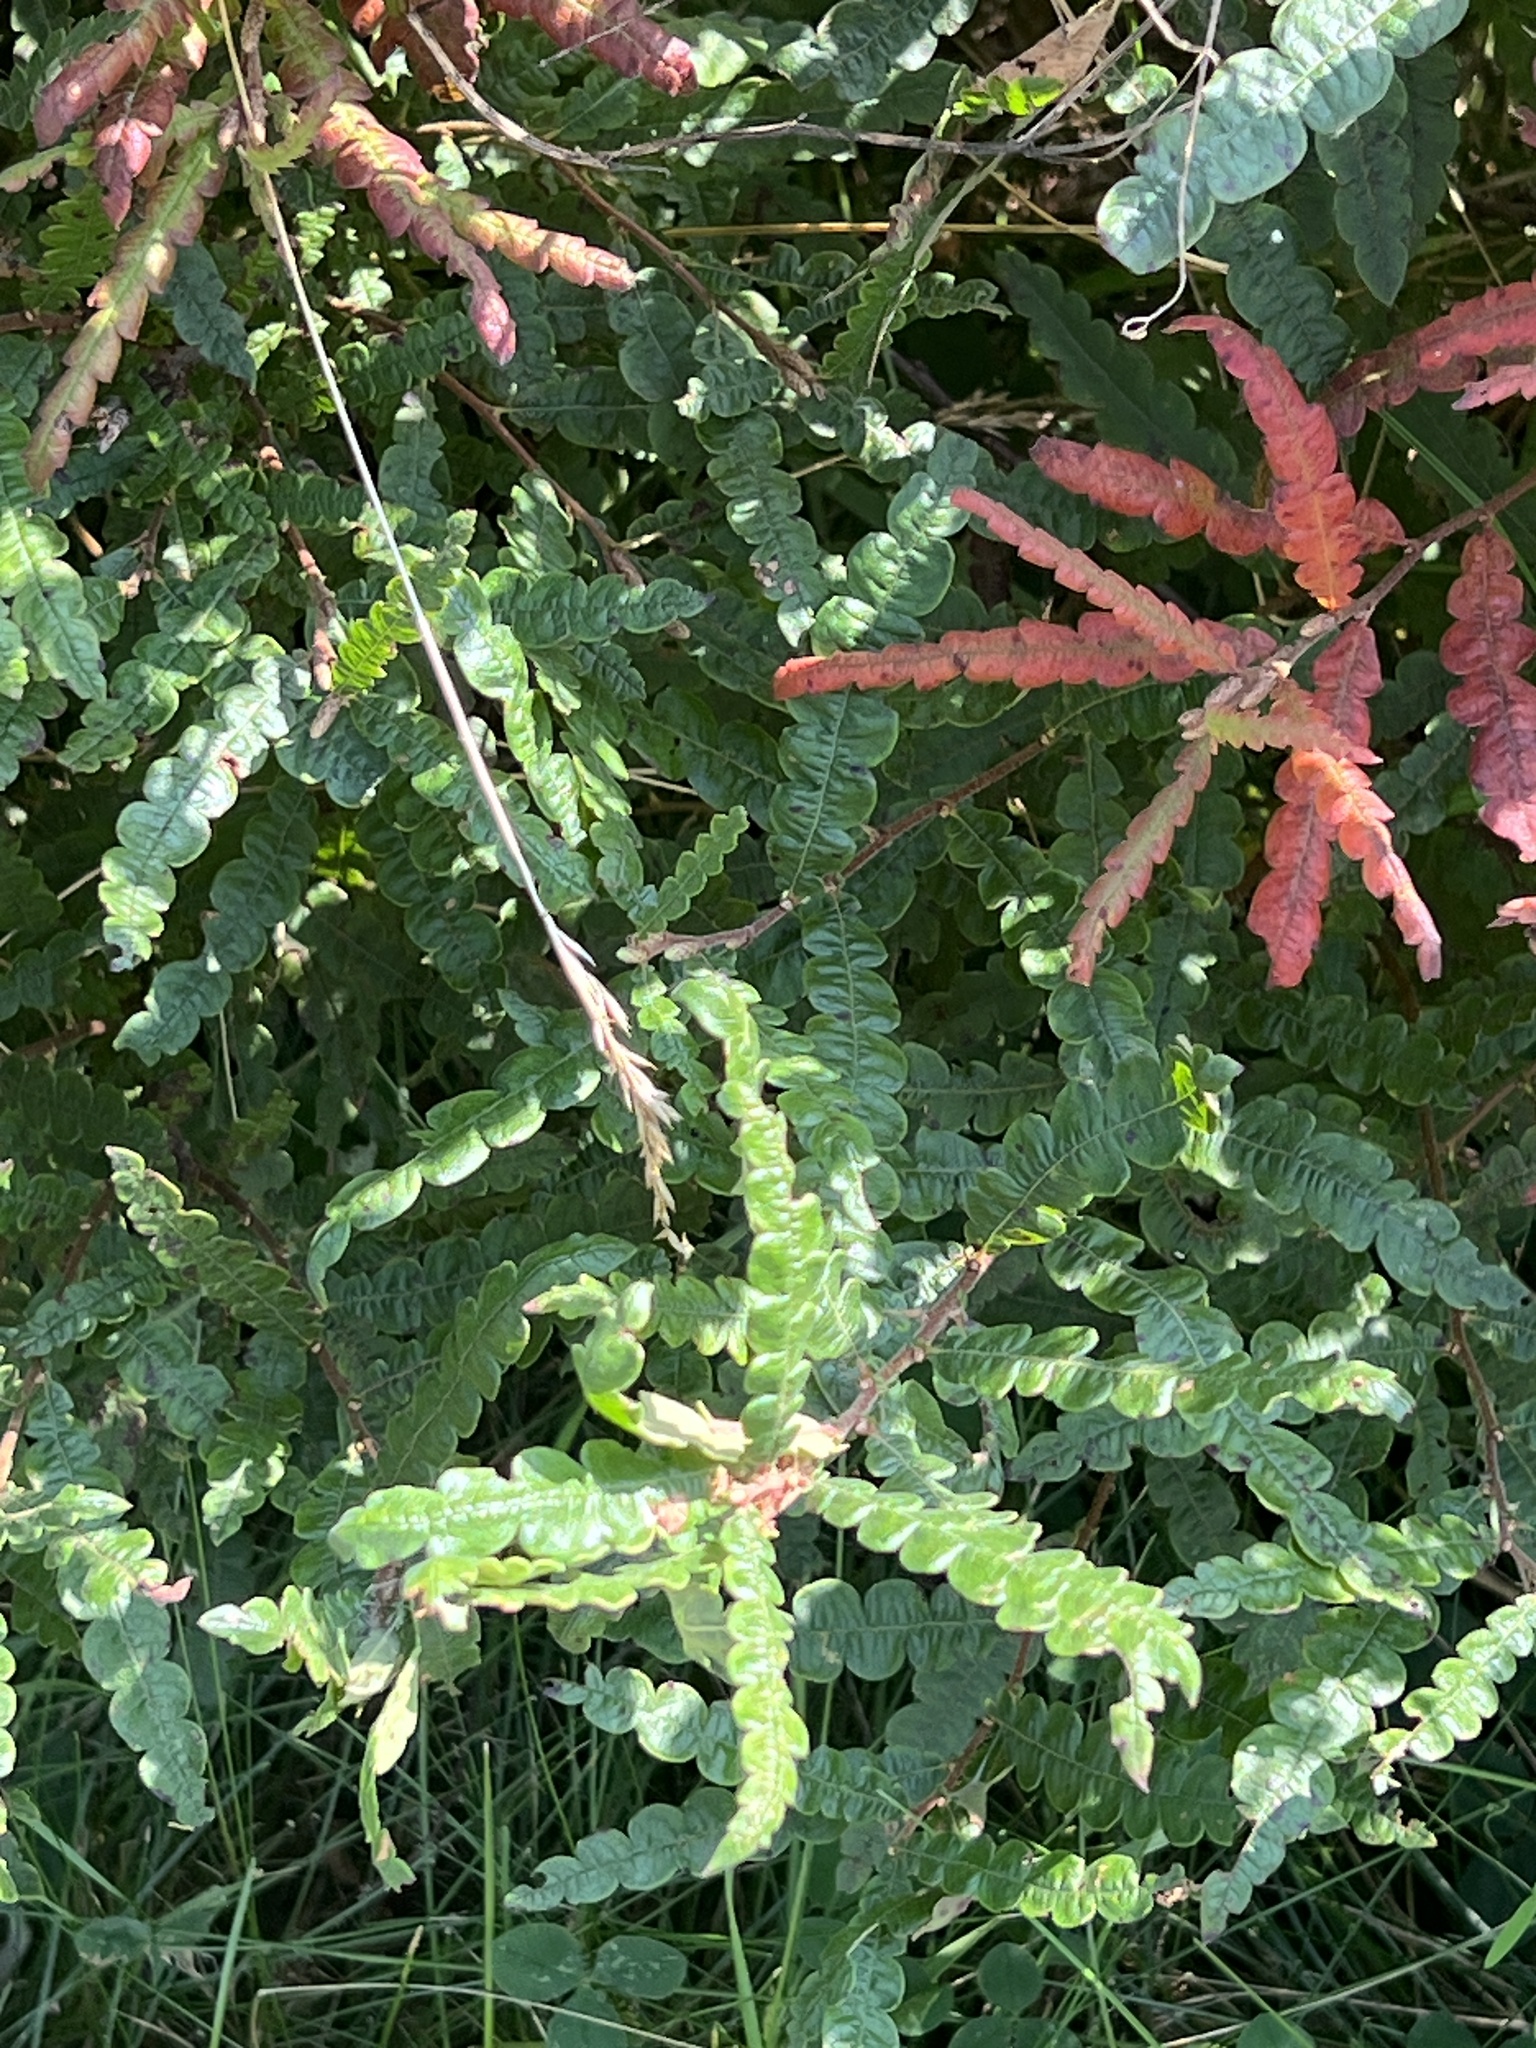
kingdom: Plantae
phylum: Tracheophyta
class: Magnoliopsida
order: Fagales
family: Myricaceae
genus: Comptonia
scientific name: Comptonia peregrina
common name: Sweet-fern
